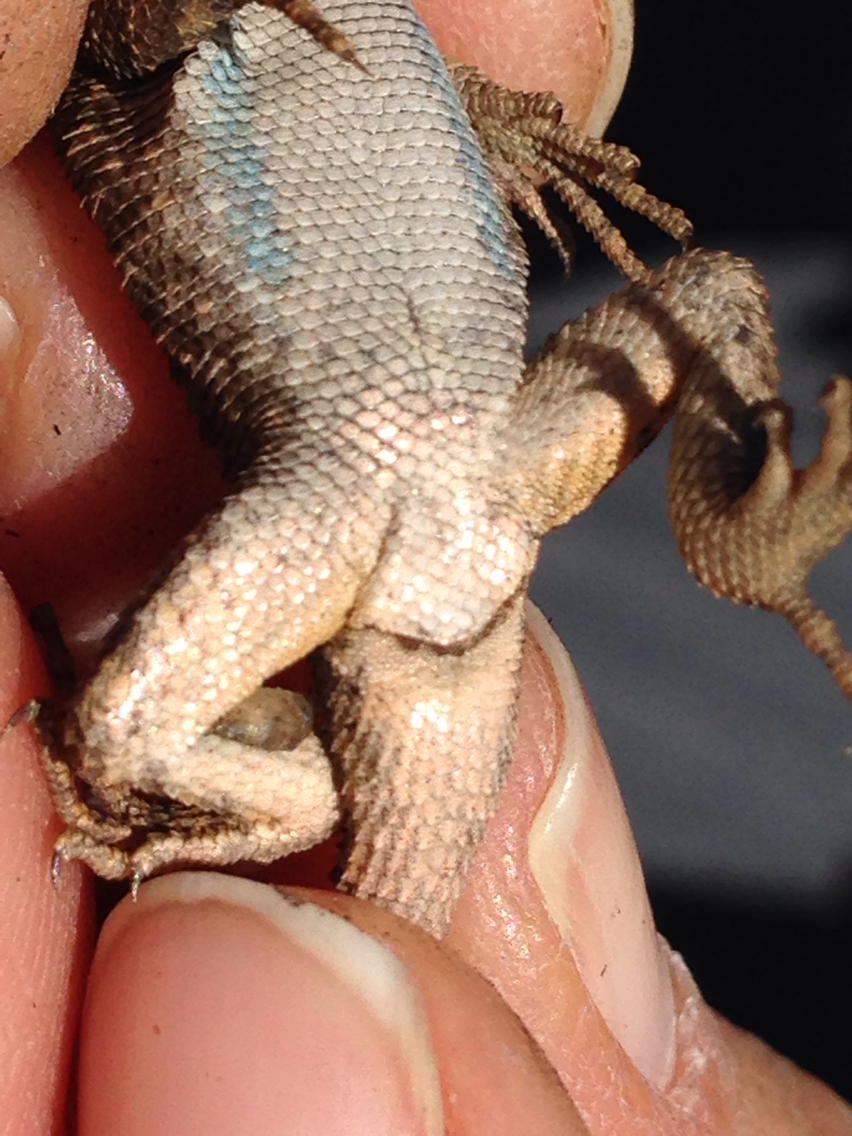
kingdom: Animalia
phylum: Chordata
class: Squamata
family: Phrynosomatidae
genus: Sceloporus
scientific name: Sceloporus occidentalis
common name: Western fence lizard
